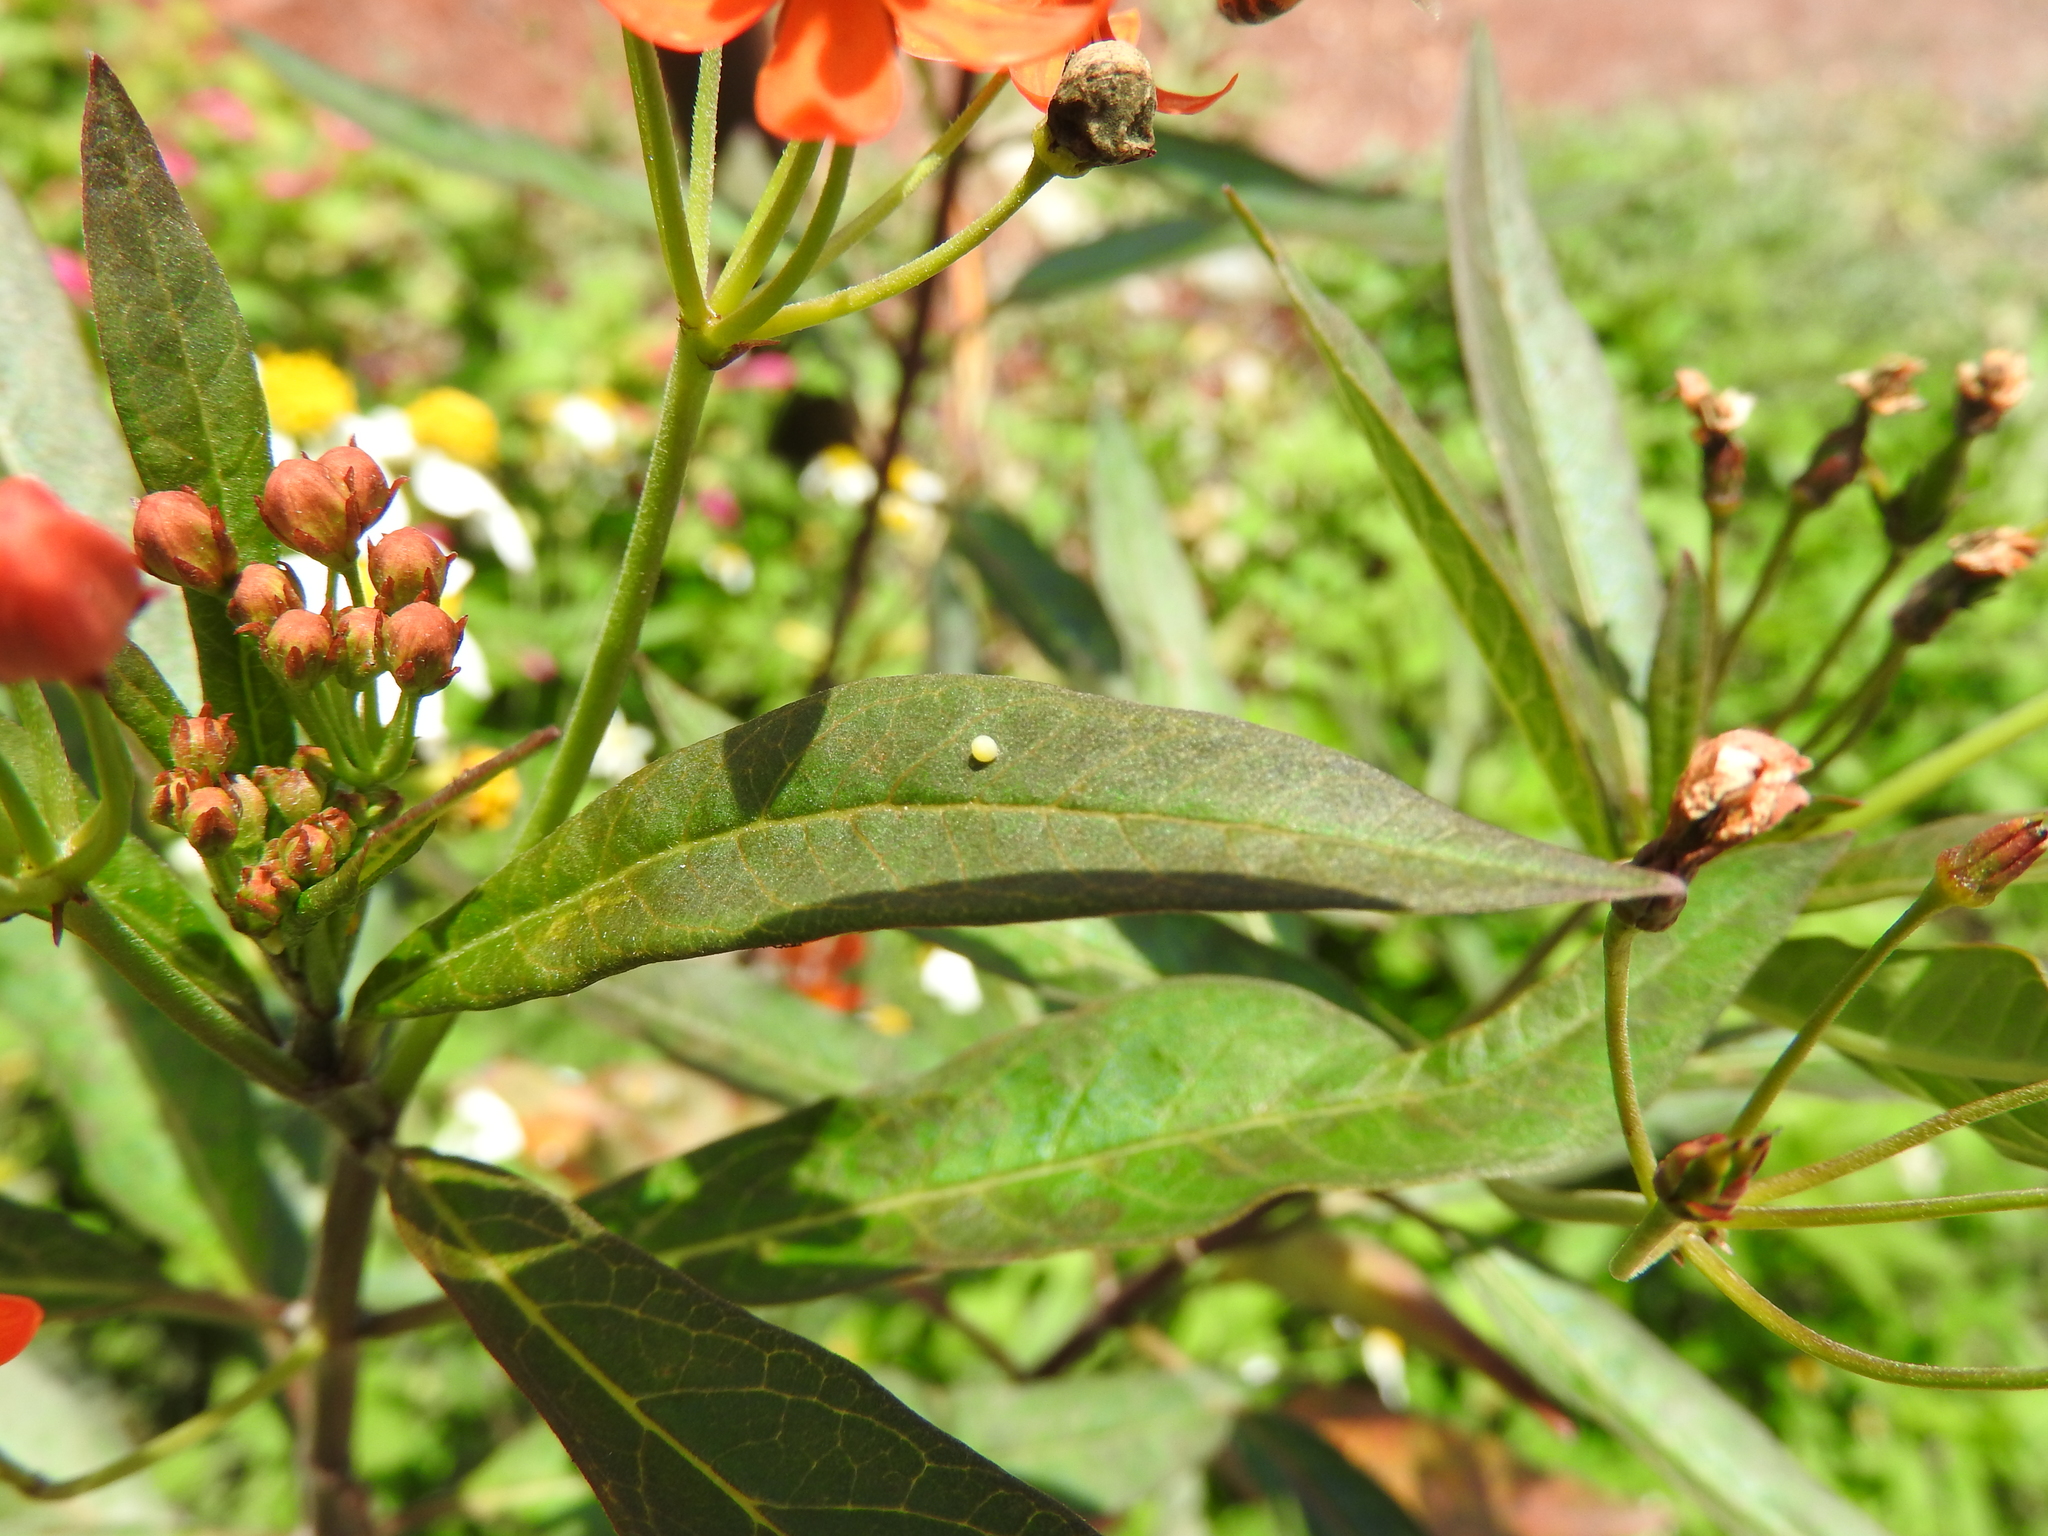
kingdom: Animalia
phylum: Arthropoda
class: Insecta
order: Lepidoptera
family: Nymphalidae
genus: Danaus
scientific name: Danaus plexippus
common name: Monarch
